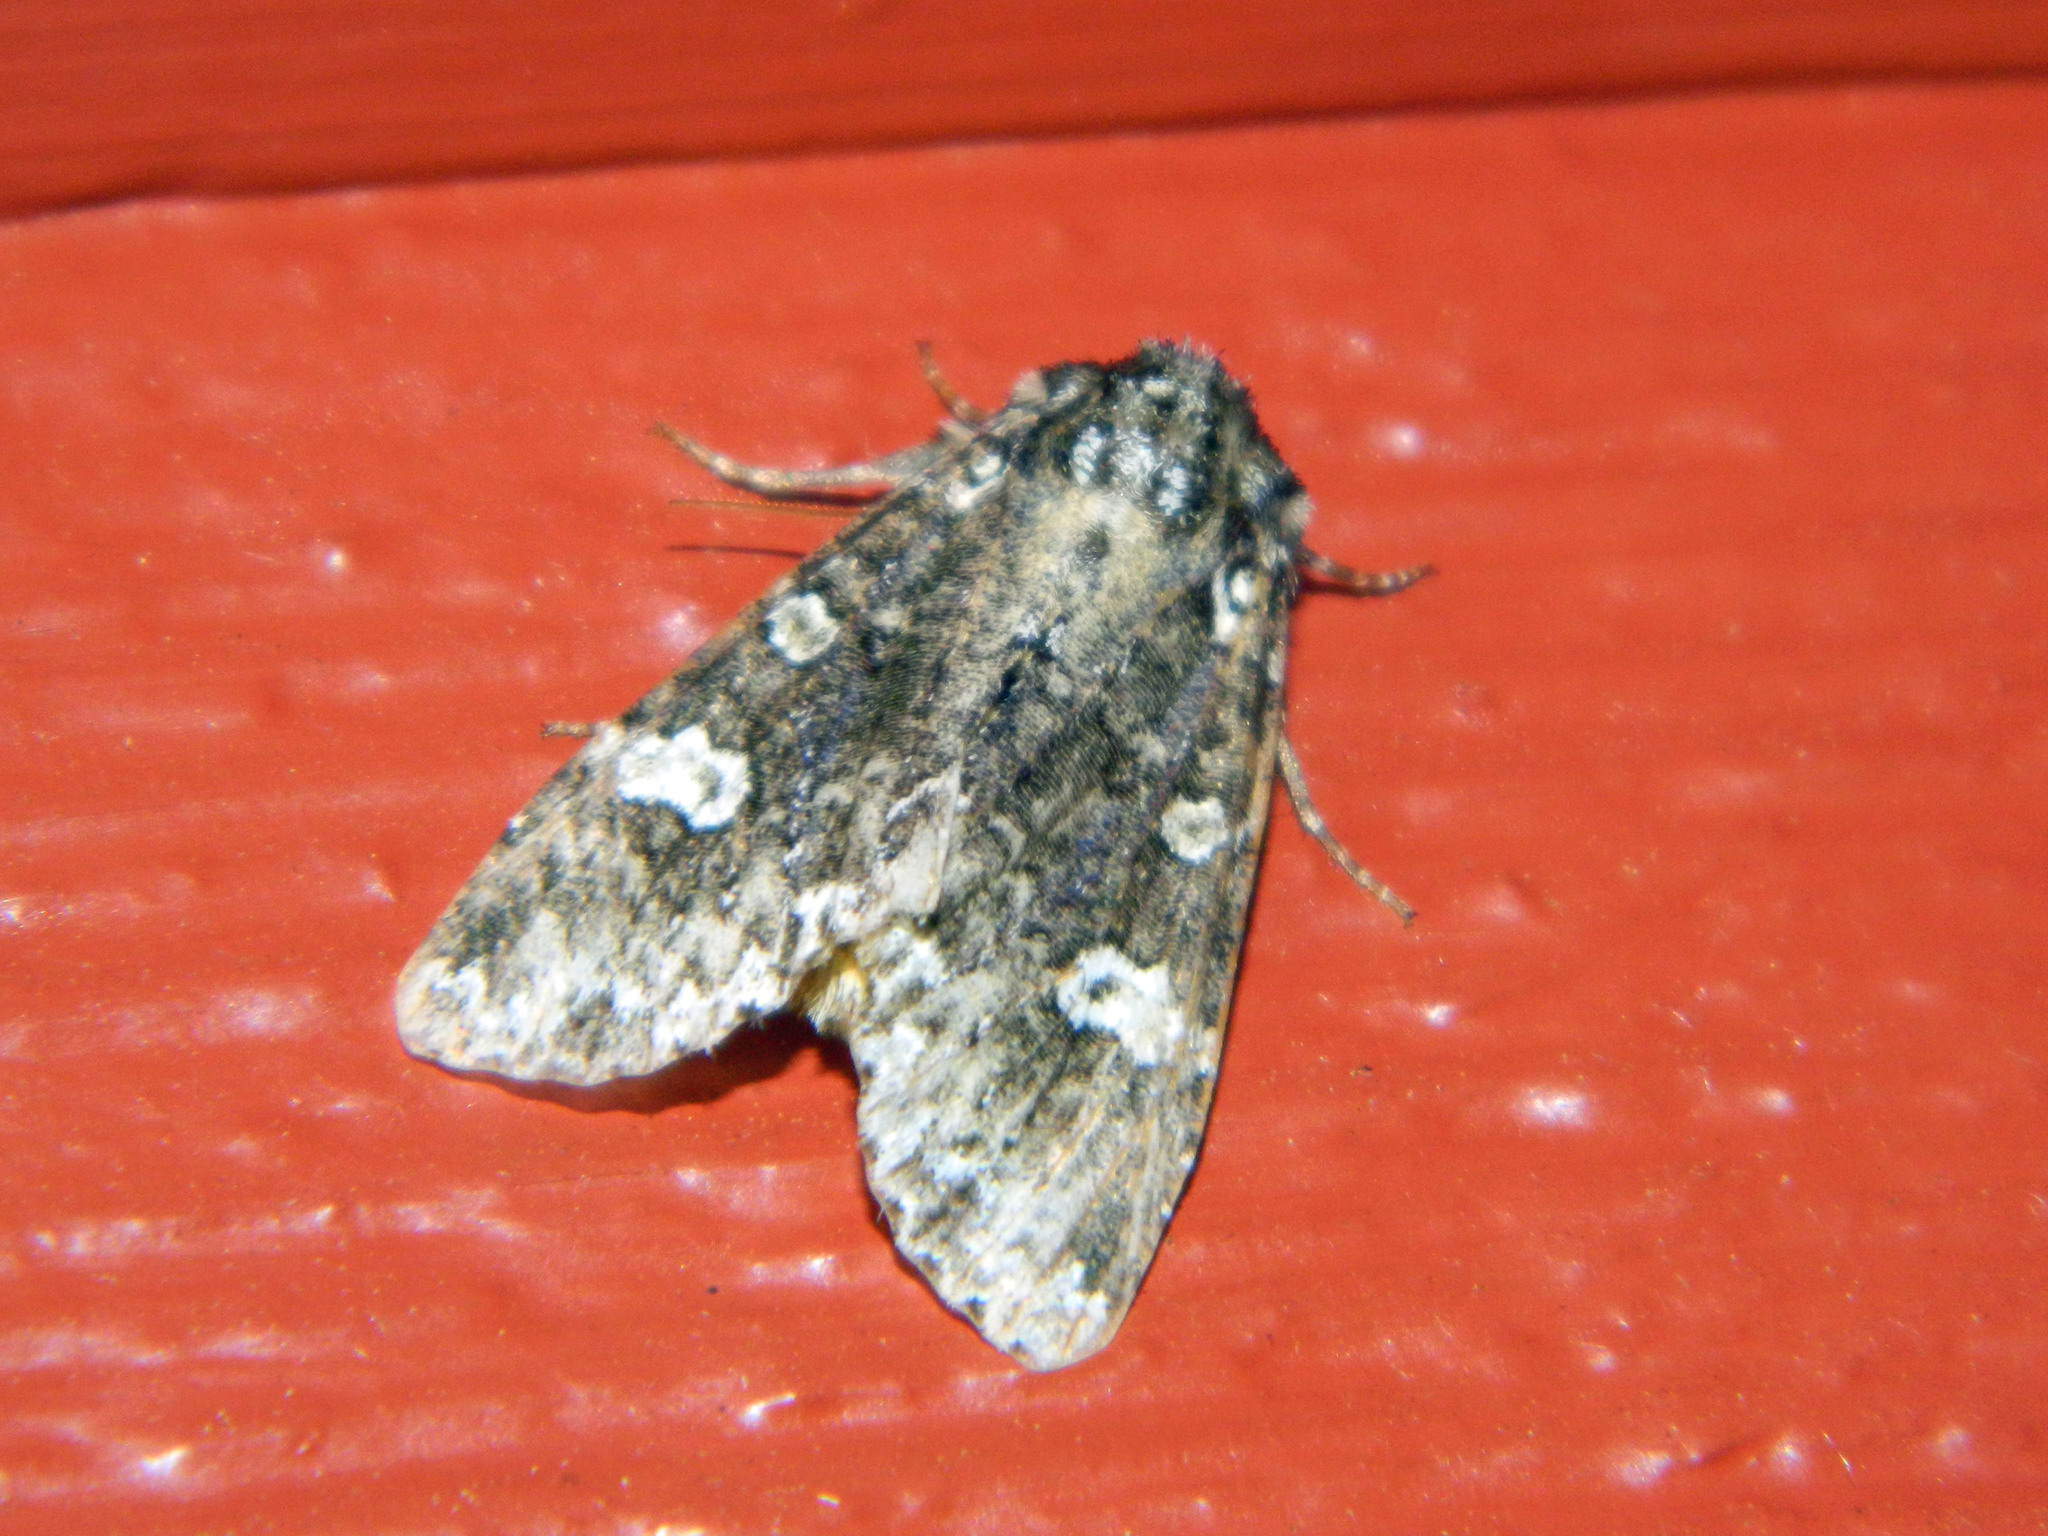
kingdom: Animalia
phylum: Arthropoda
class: Insecta
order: Lepidoptera
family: Noctuidae
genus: Melanchra
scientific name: Melanchra adjuncta
